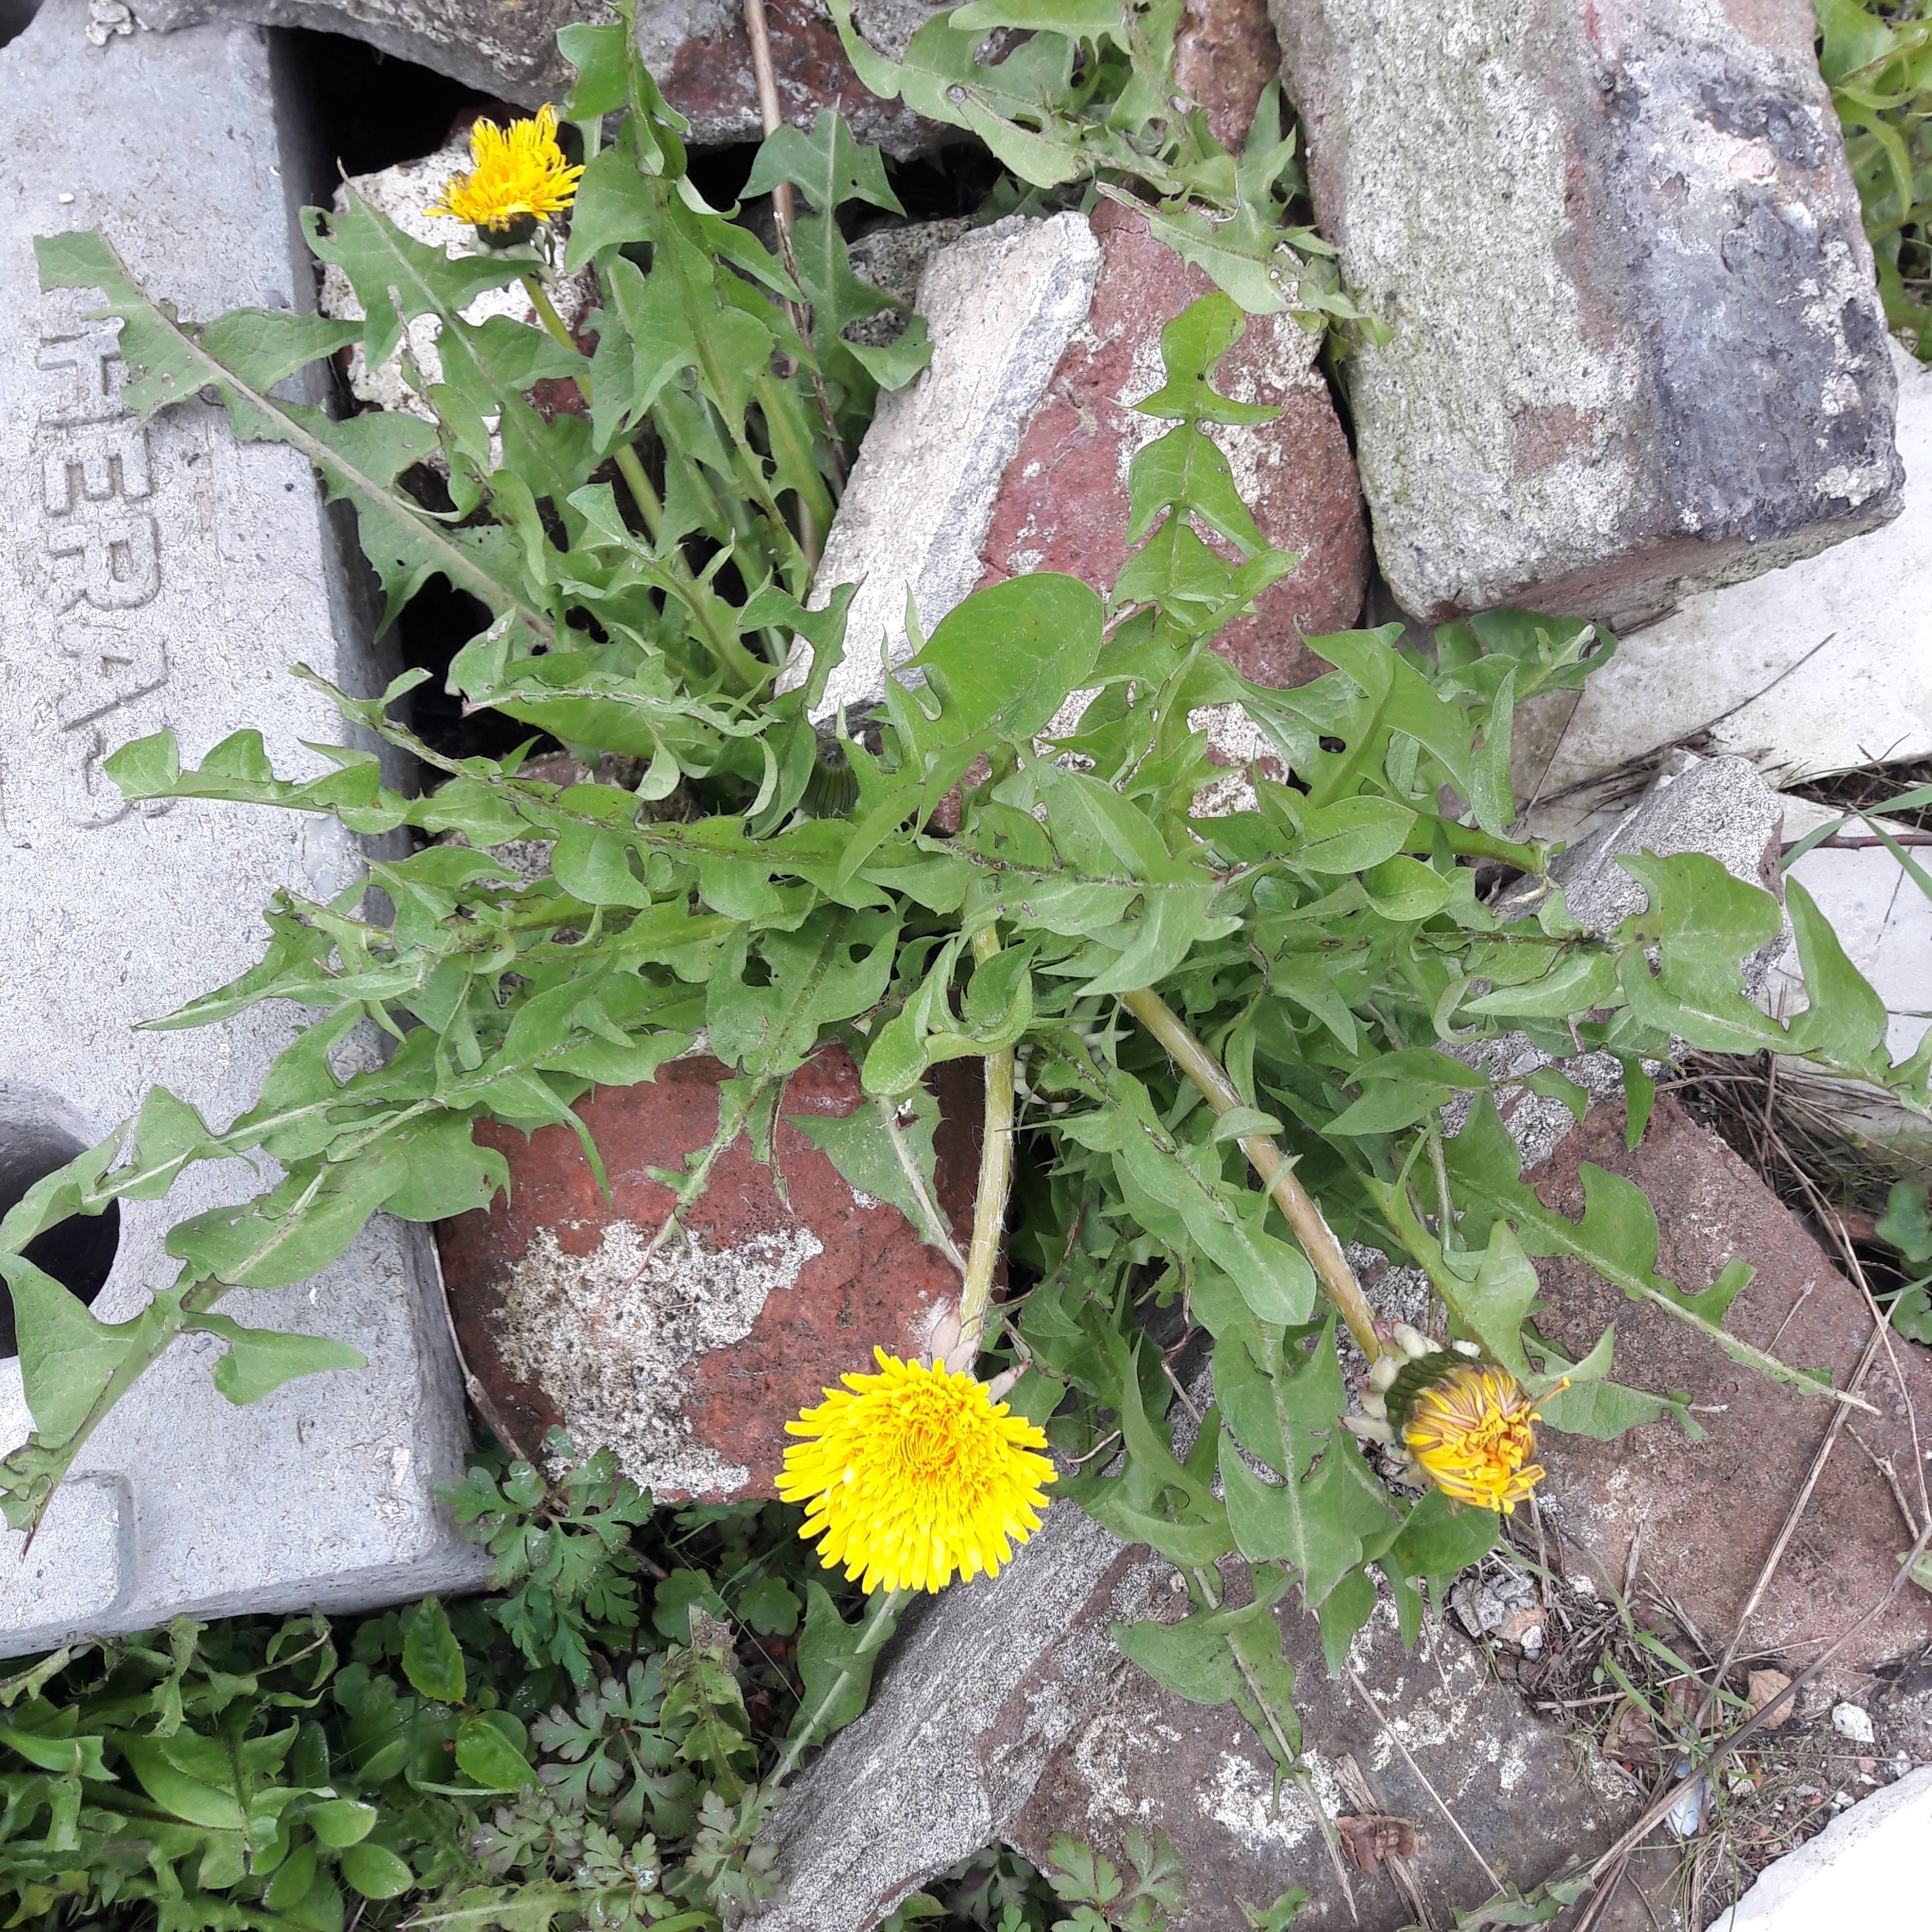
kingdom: Plantae
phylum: Tracheophyta
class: Magnoliopsida
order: Asterales
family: Asteraceae
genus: Taraxacum
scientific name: Taraxacum officinale
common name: Common dandelion
